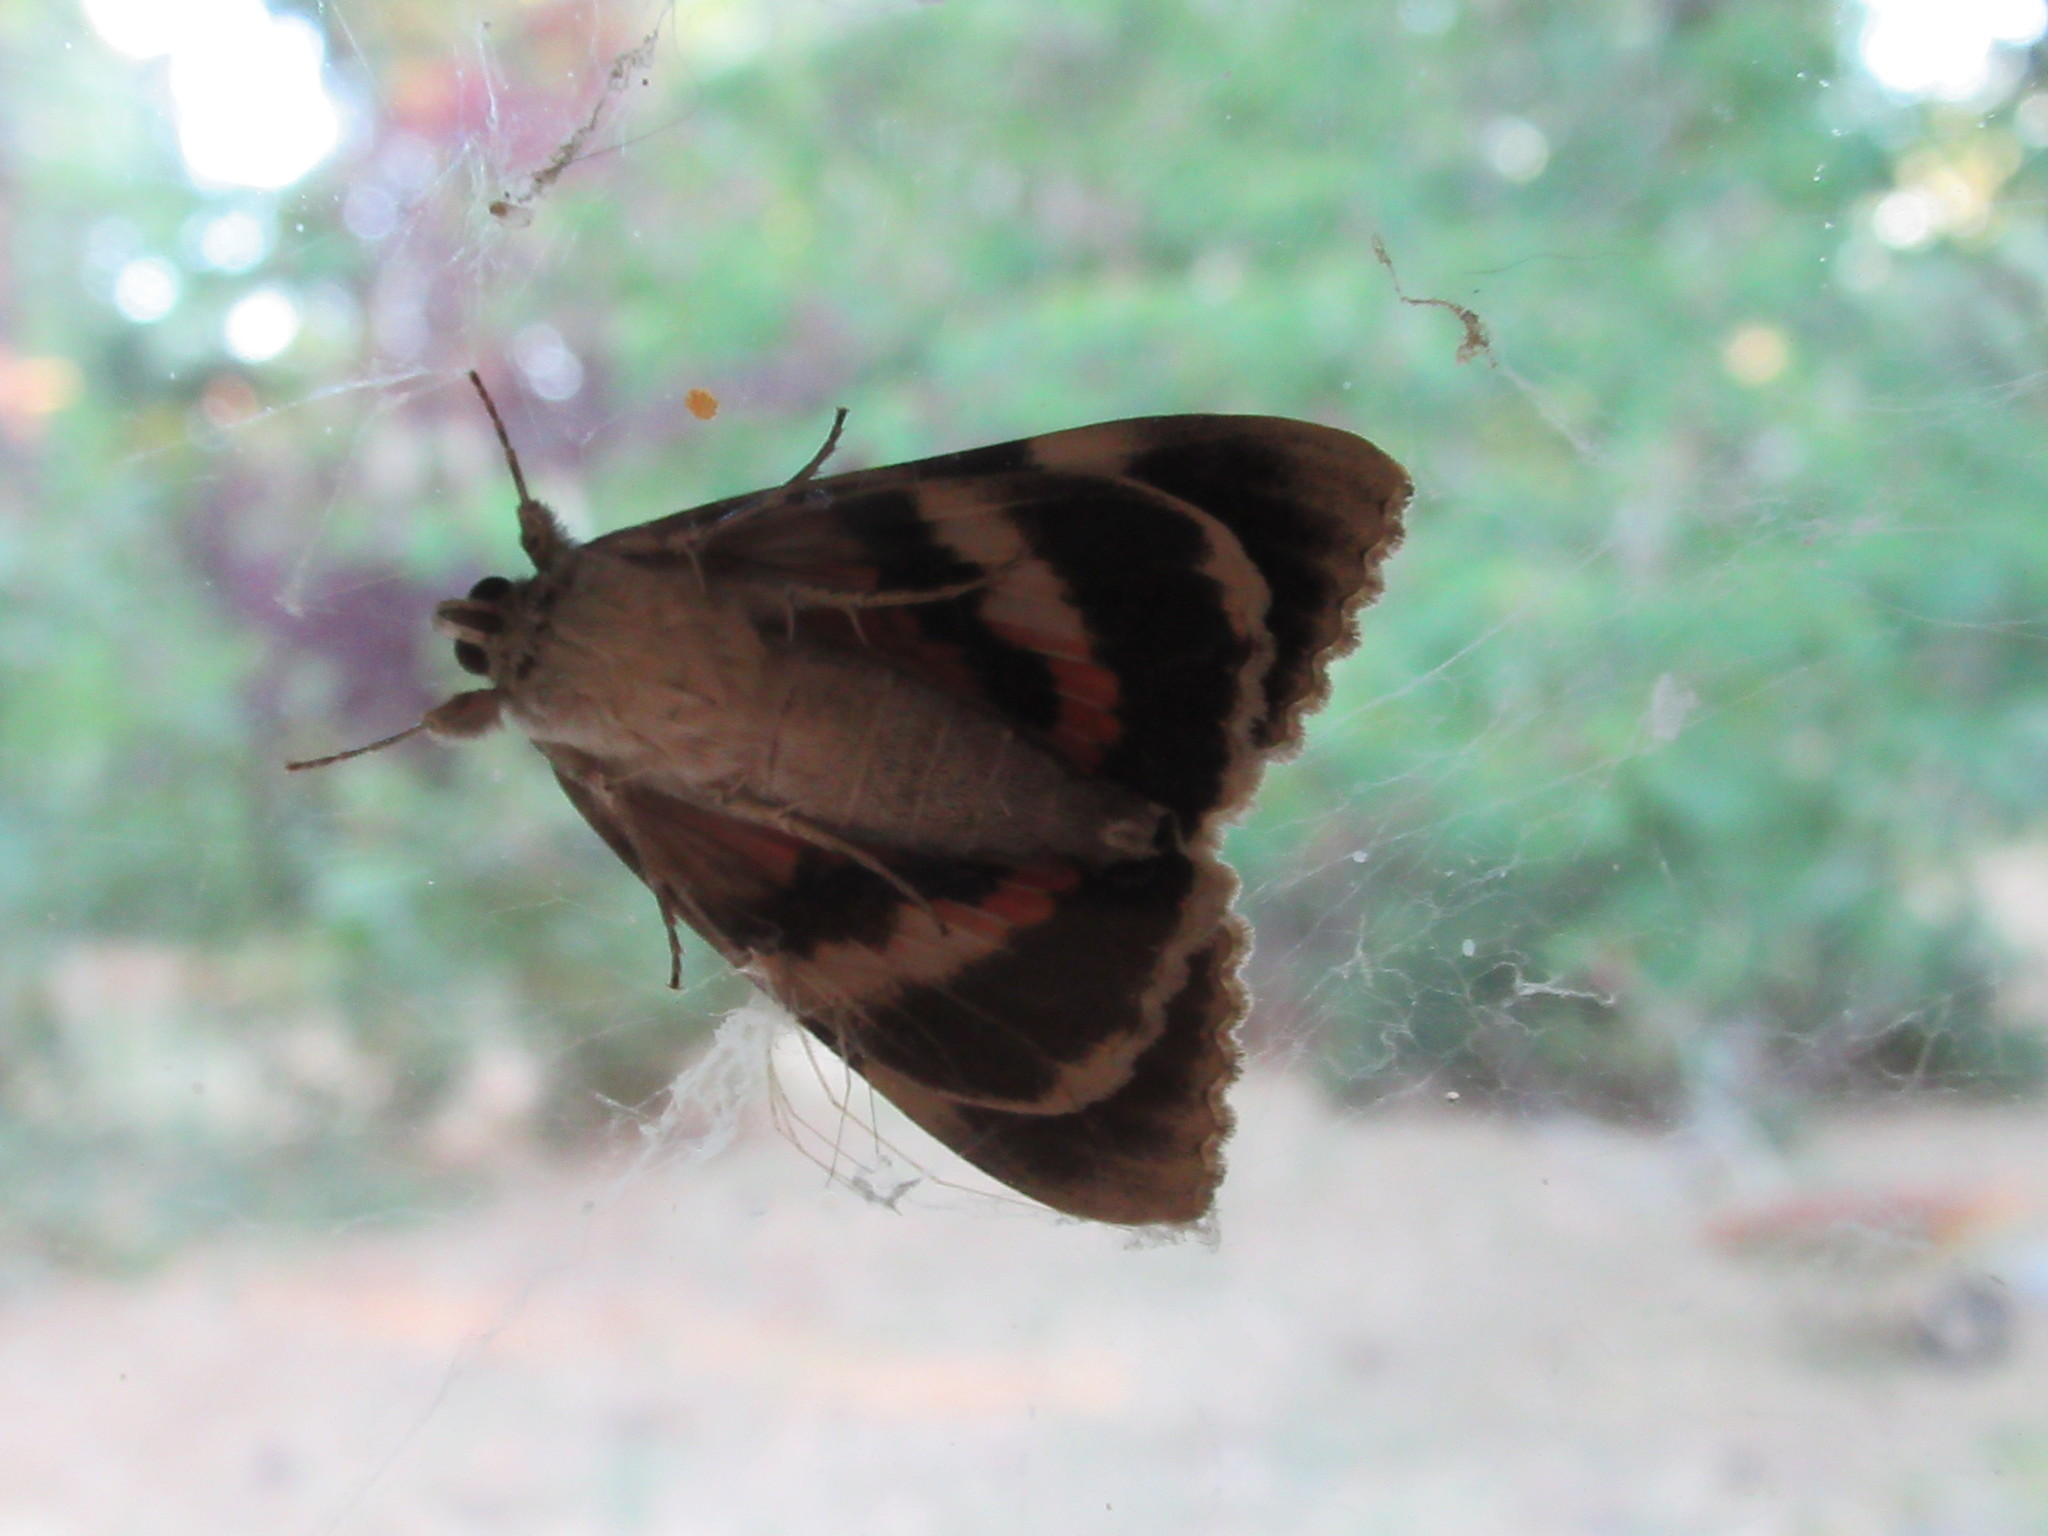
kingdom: Animalia
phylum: Arthropoda
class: Insecta
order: Lepidoptera
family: Erebidae
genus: Catocala
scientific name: Catocala junctura
